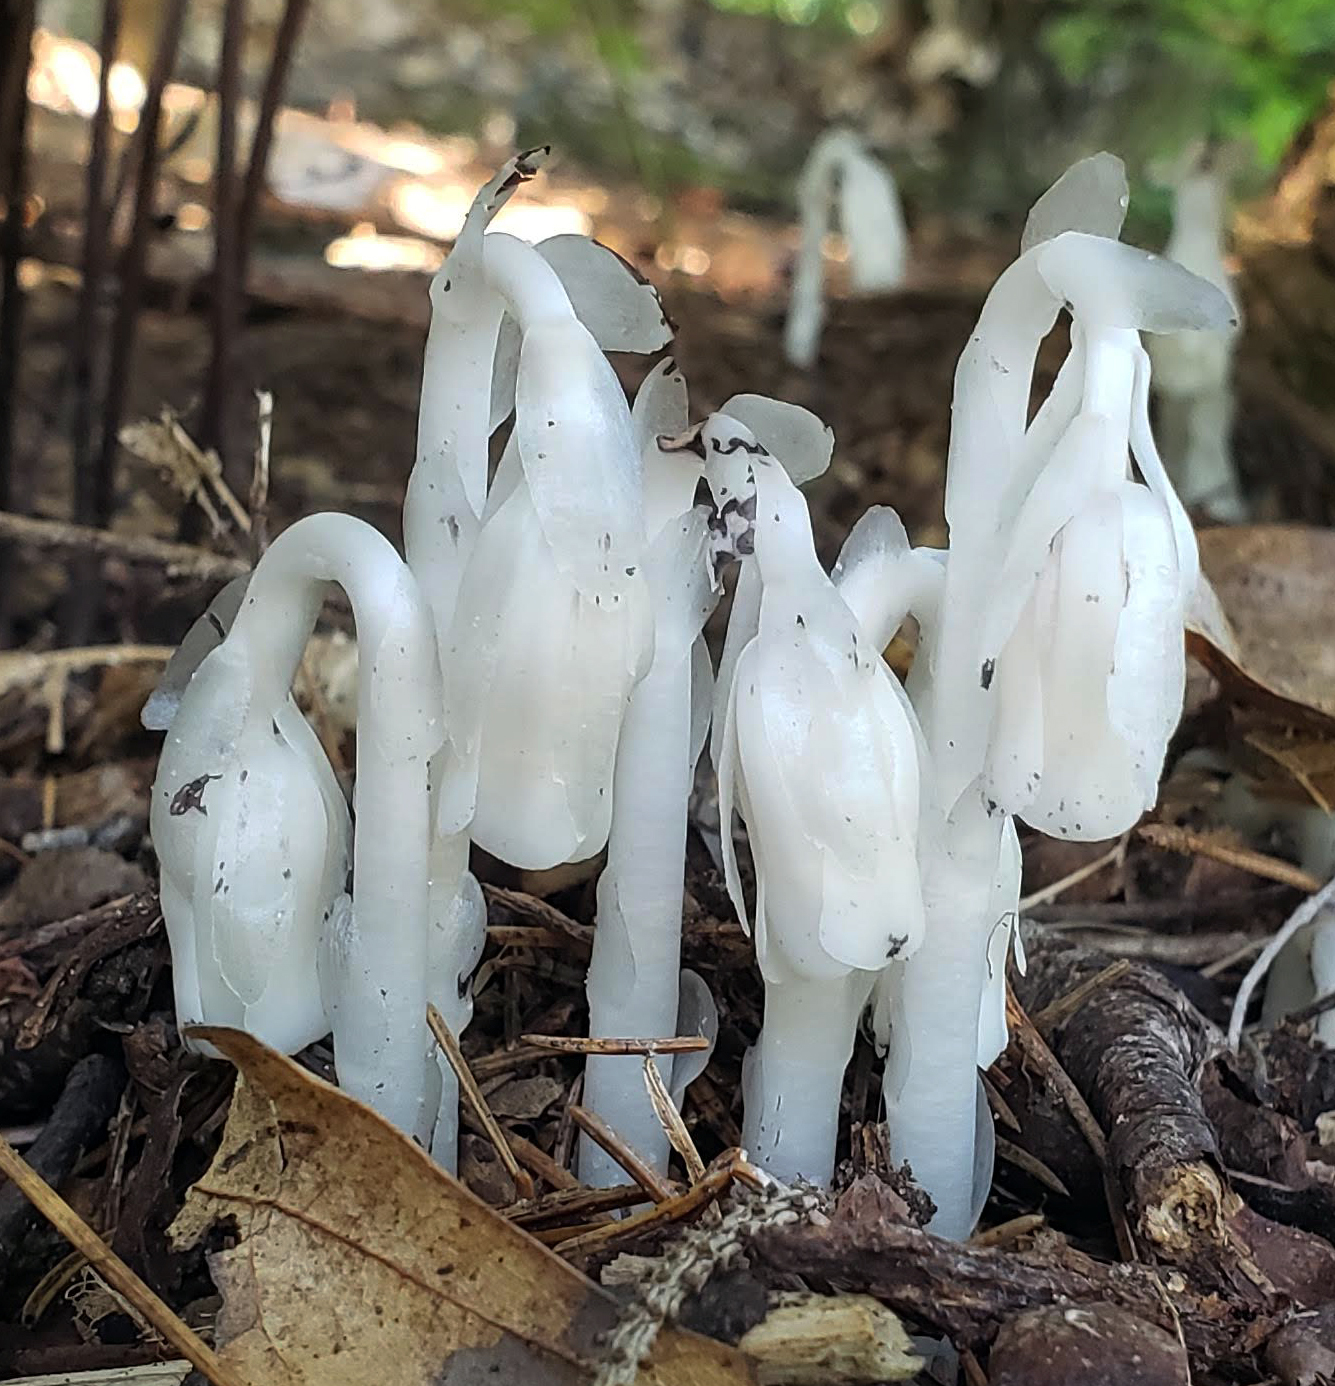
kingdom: Plantae
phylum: Tracheophyta
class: Magnoliopsida
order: Ericales
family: Ericaceae
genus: Monotropa
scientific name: Monotropa uniflora
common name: Convulsion root
